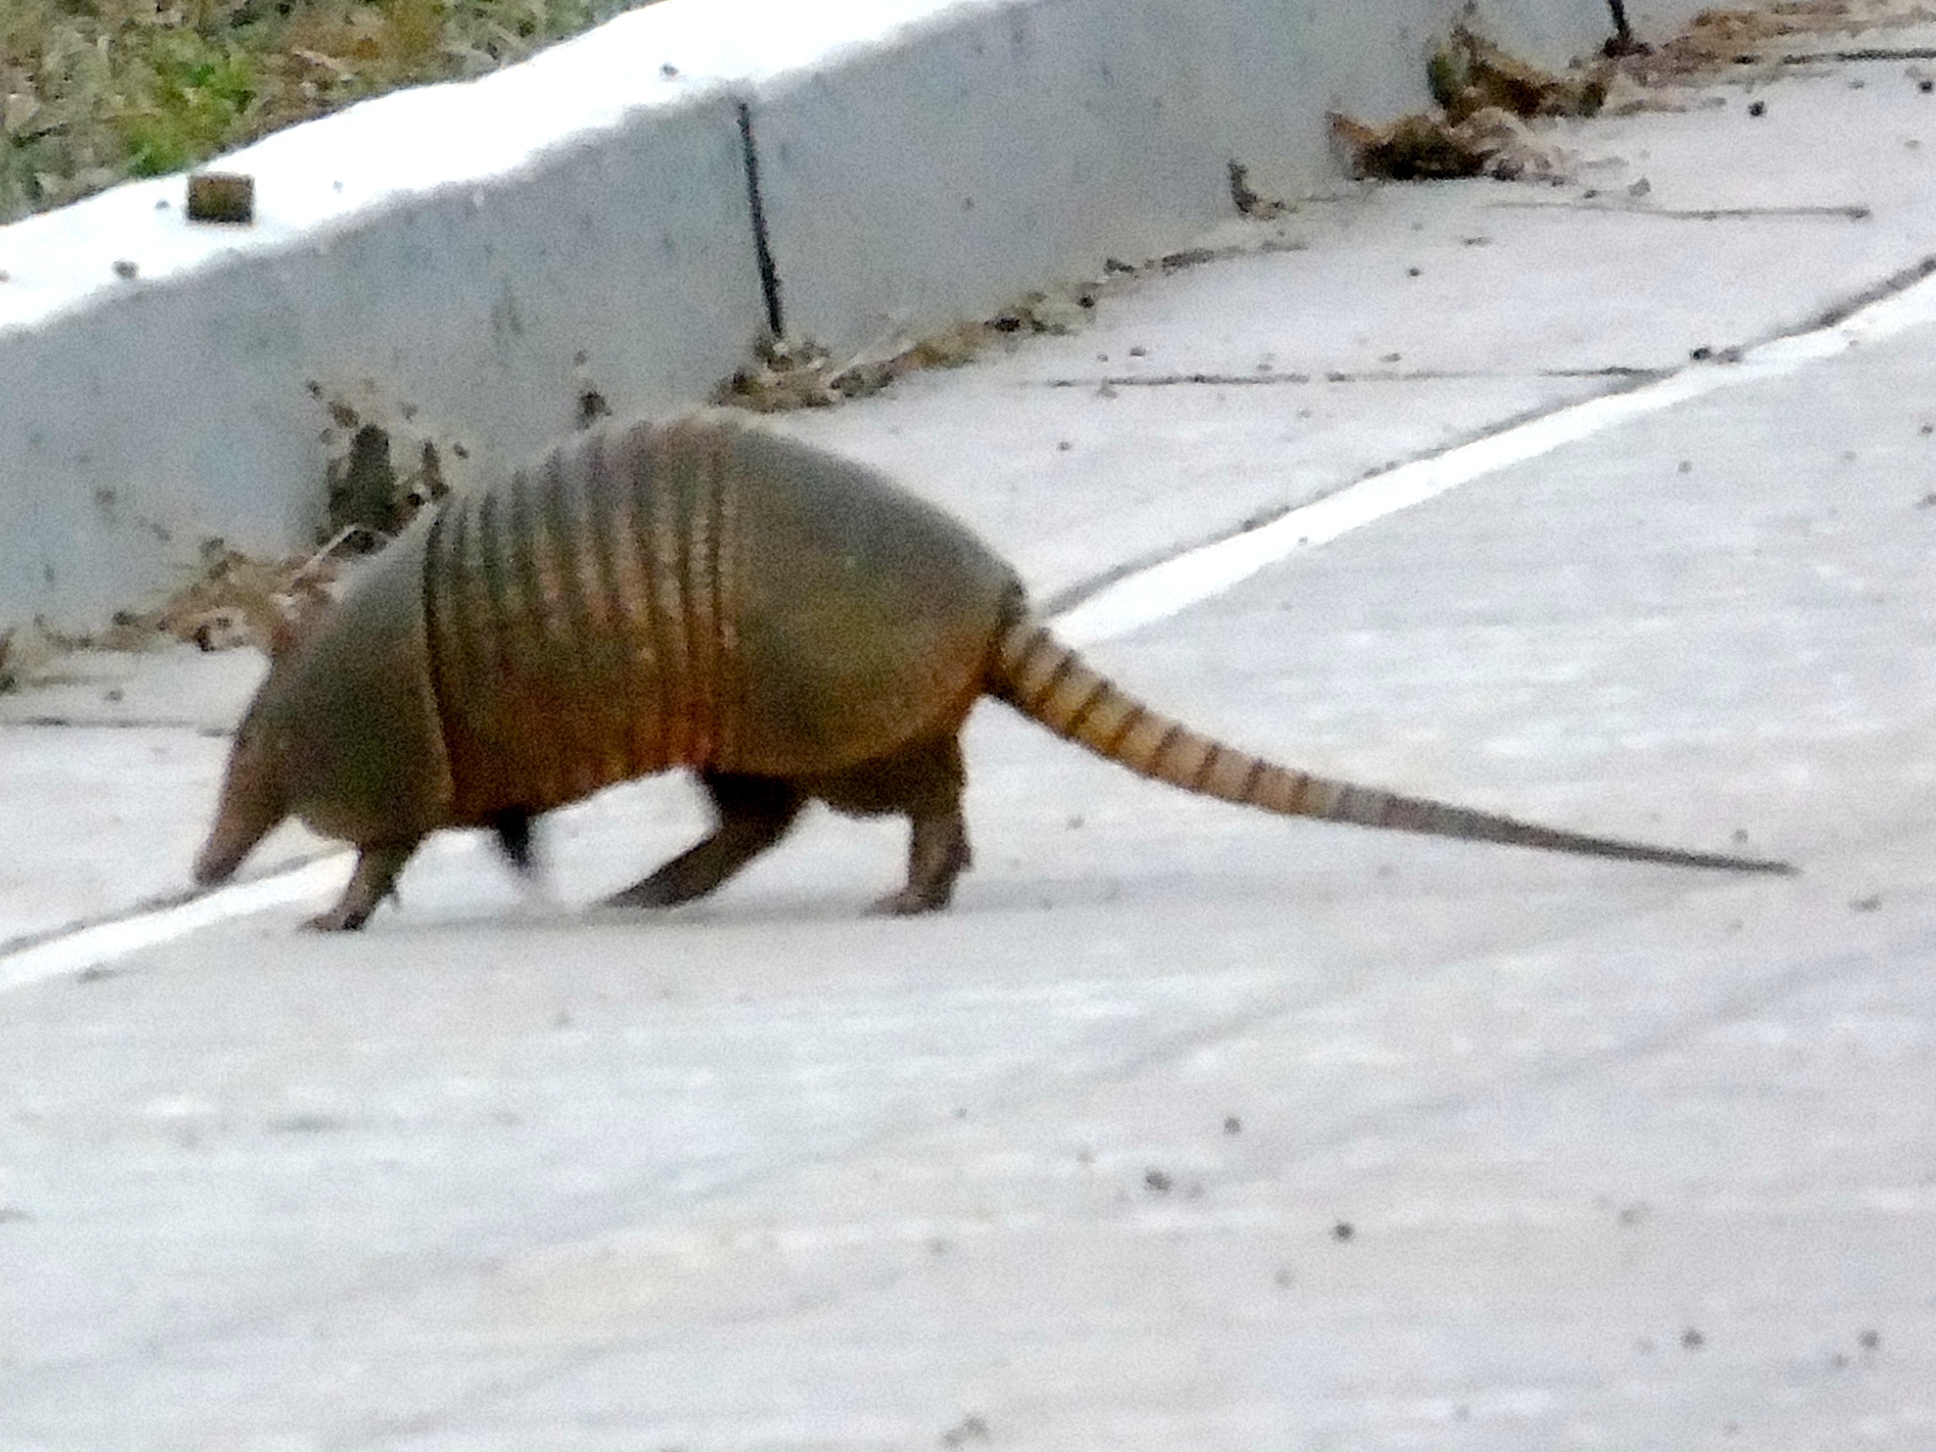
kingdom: Animalia
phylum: Chordata
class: Mammalia
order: Cingulata
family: Dasypodidae
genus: Dasypus
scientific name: Dasypus novemcinctus
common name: Nine-banded armadillo
